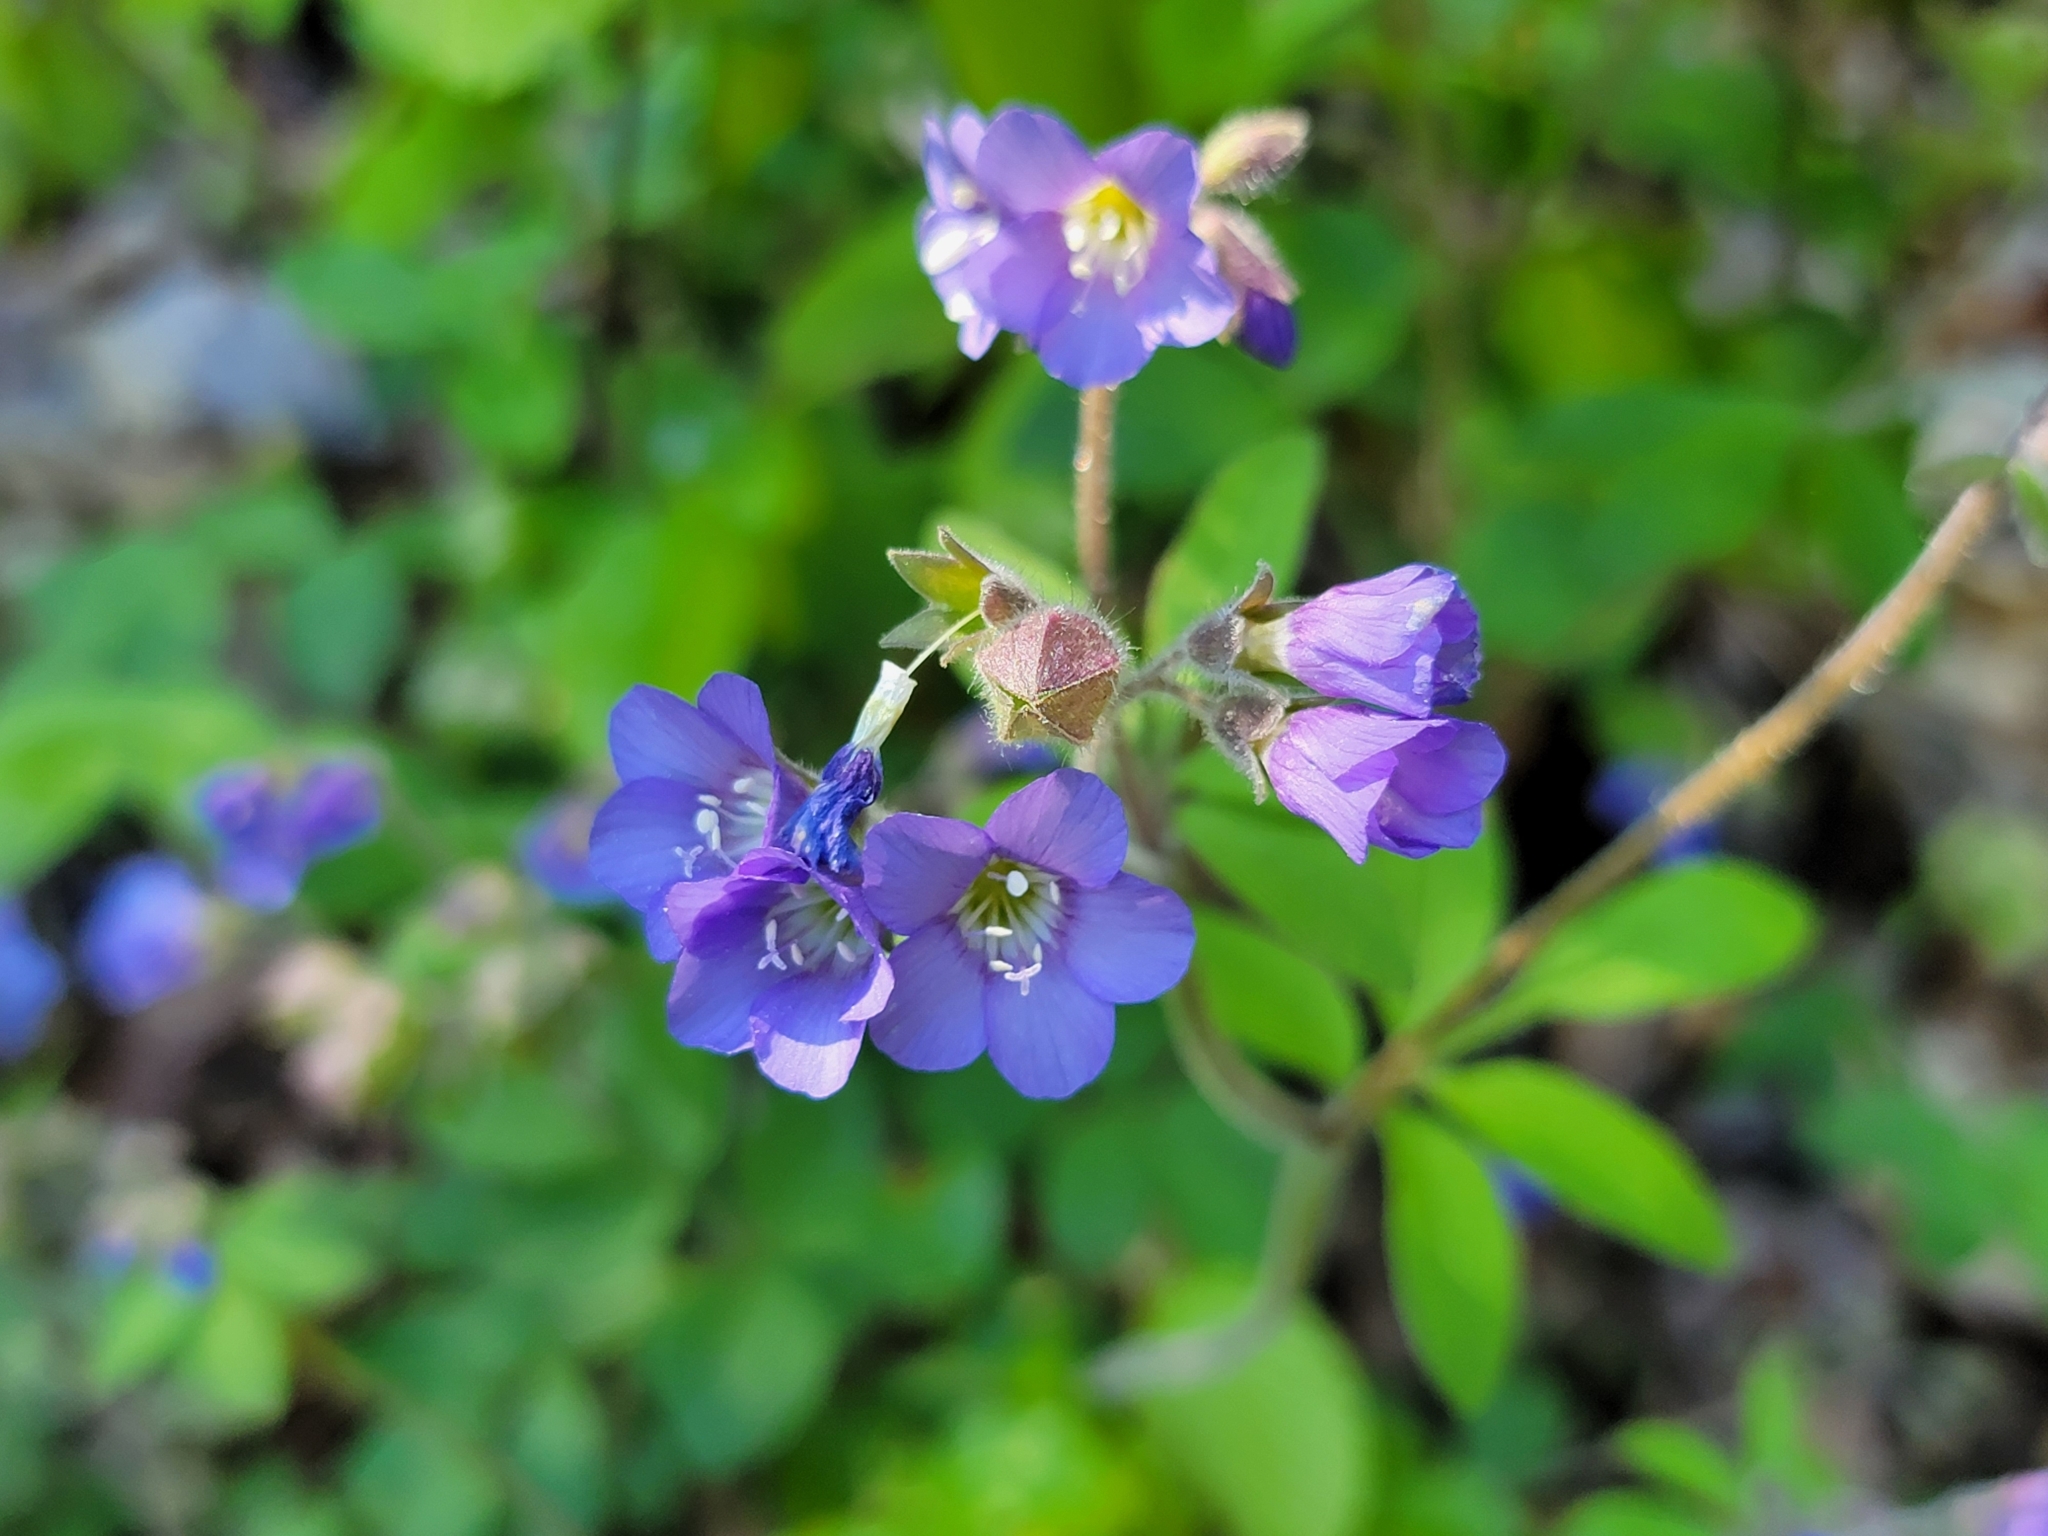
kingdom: Plantae
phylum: Tracheophyta
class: Magnoliopsida
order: Ericales
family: Polemoniaceae
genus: Polemonium
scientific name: Polemonium reptans
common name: Creeping jacob's-ladder
